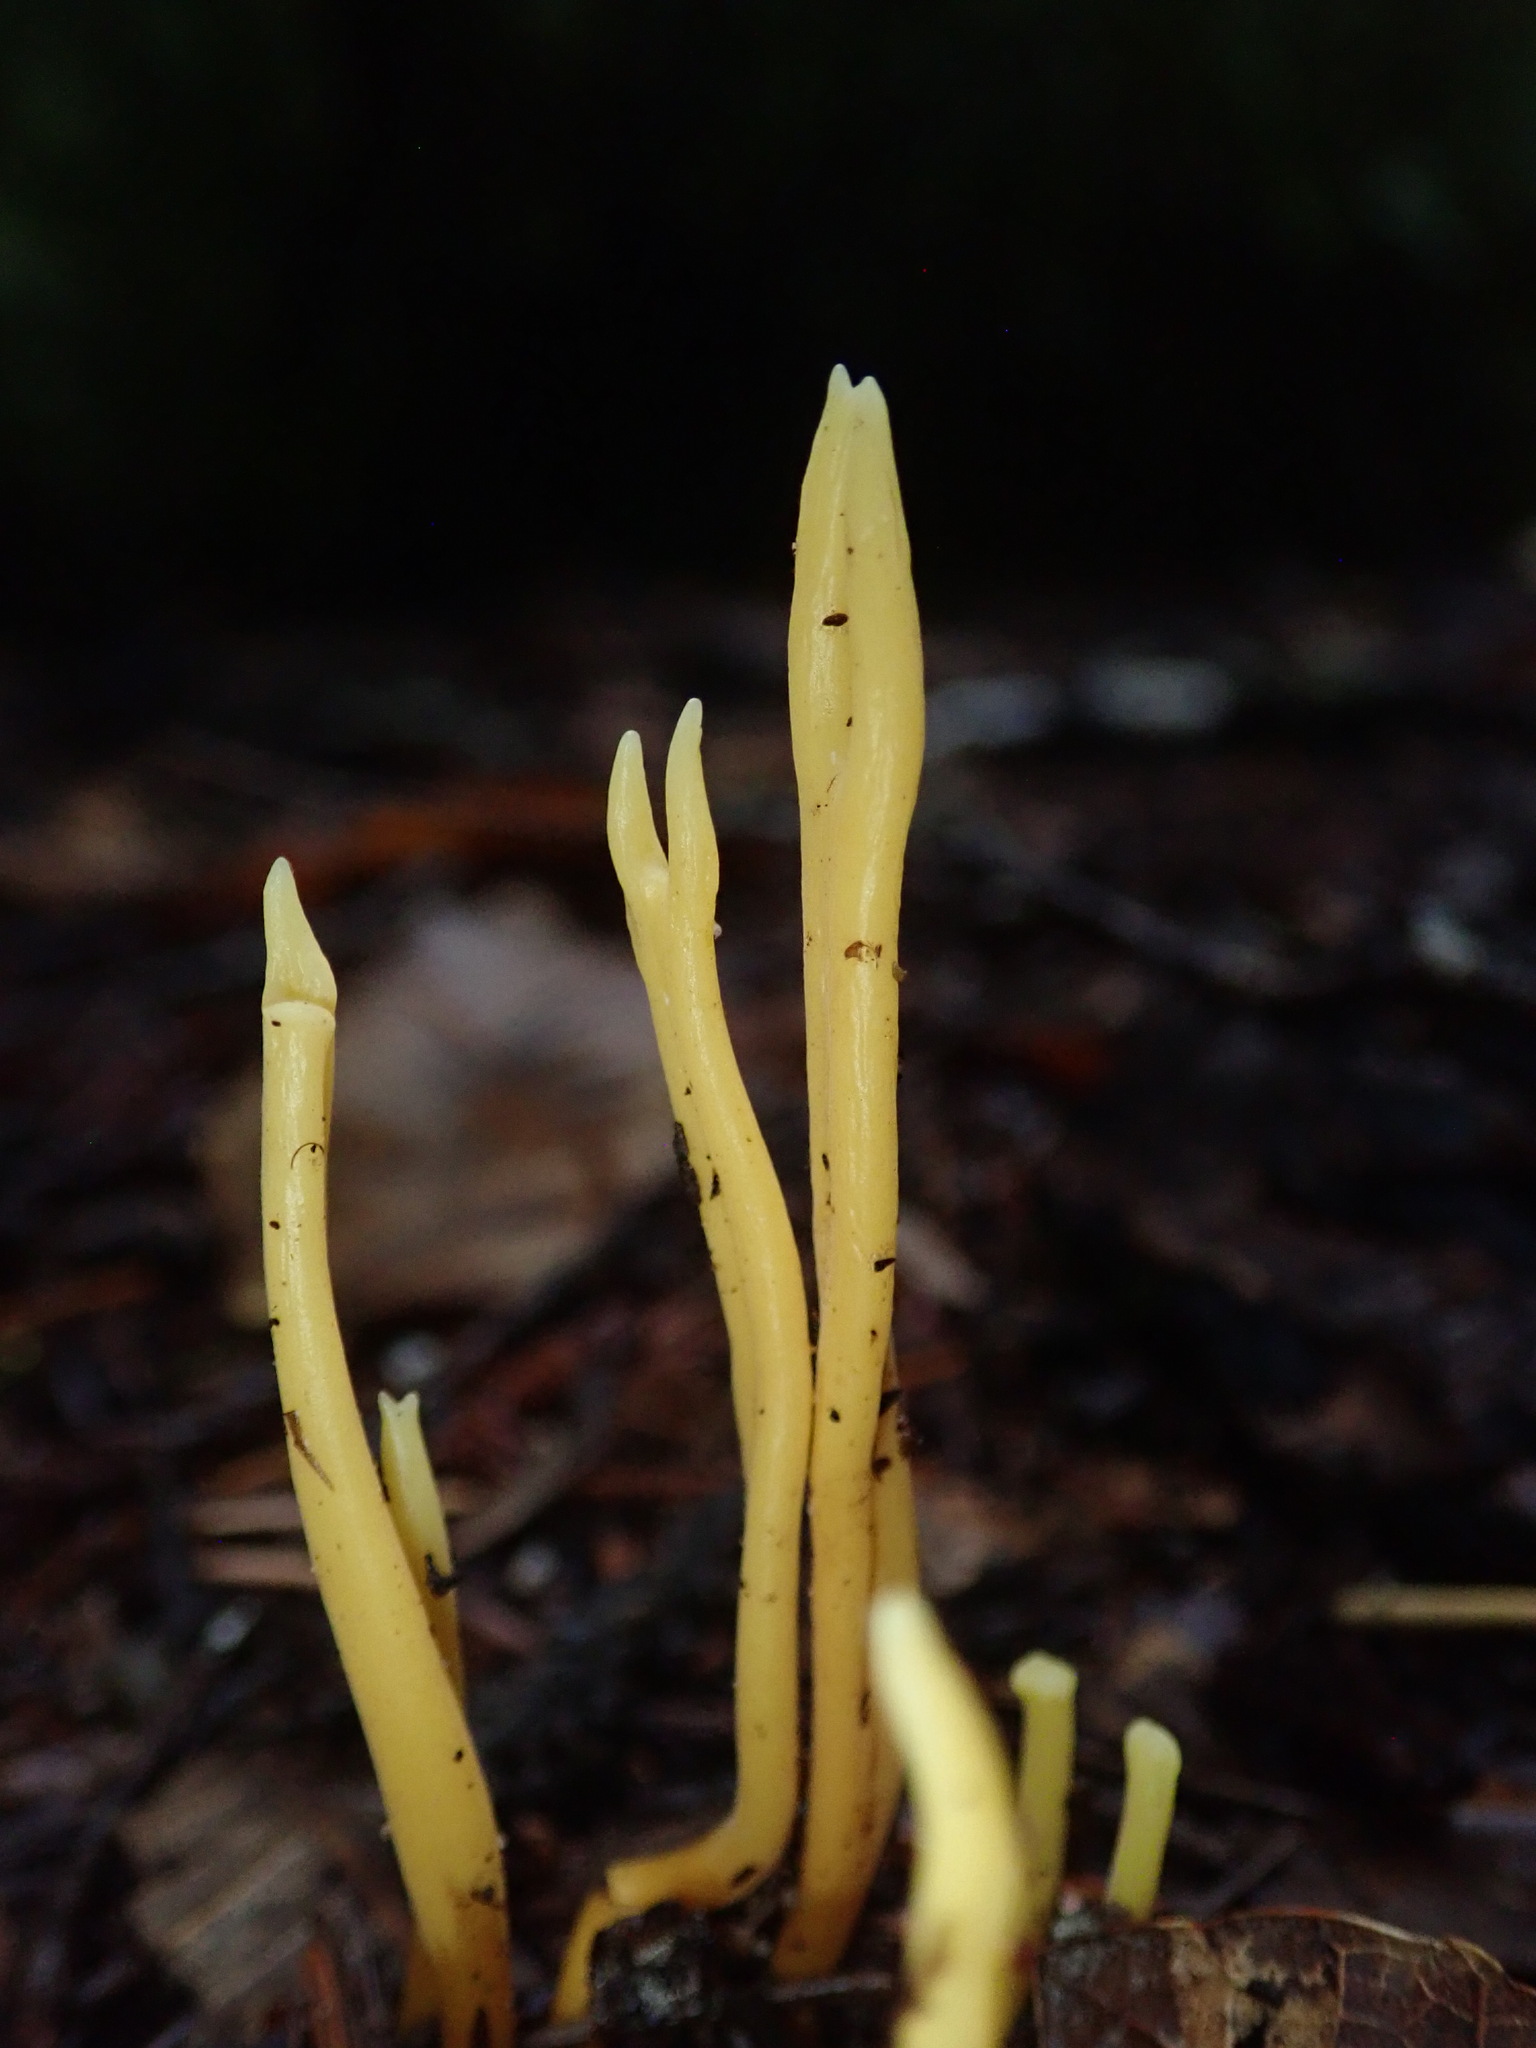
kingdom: Fungi
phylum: Basidiomycota
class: Agaricomycetes
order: Agaricales
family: Clavariaceae
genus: Clavulinopsis
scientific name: Clavulinopsis laeticolor
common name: Handsome club
